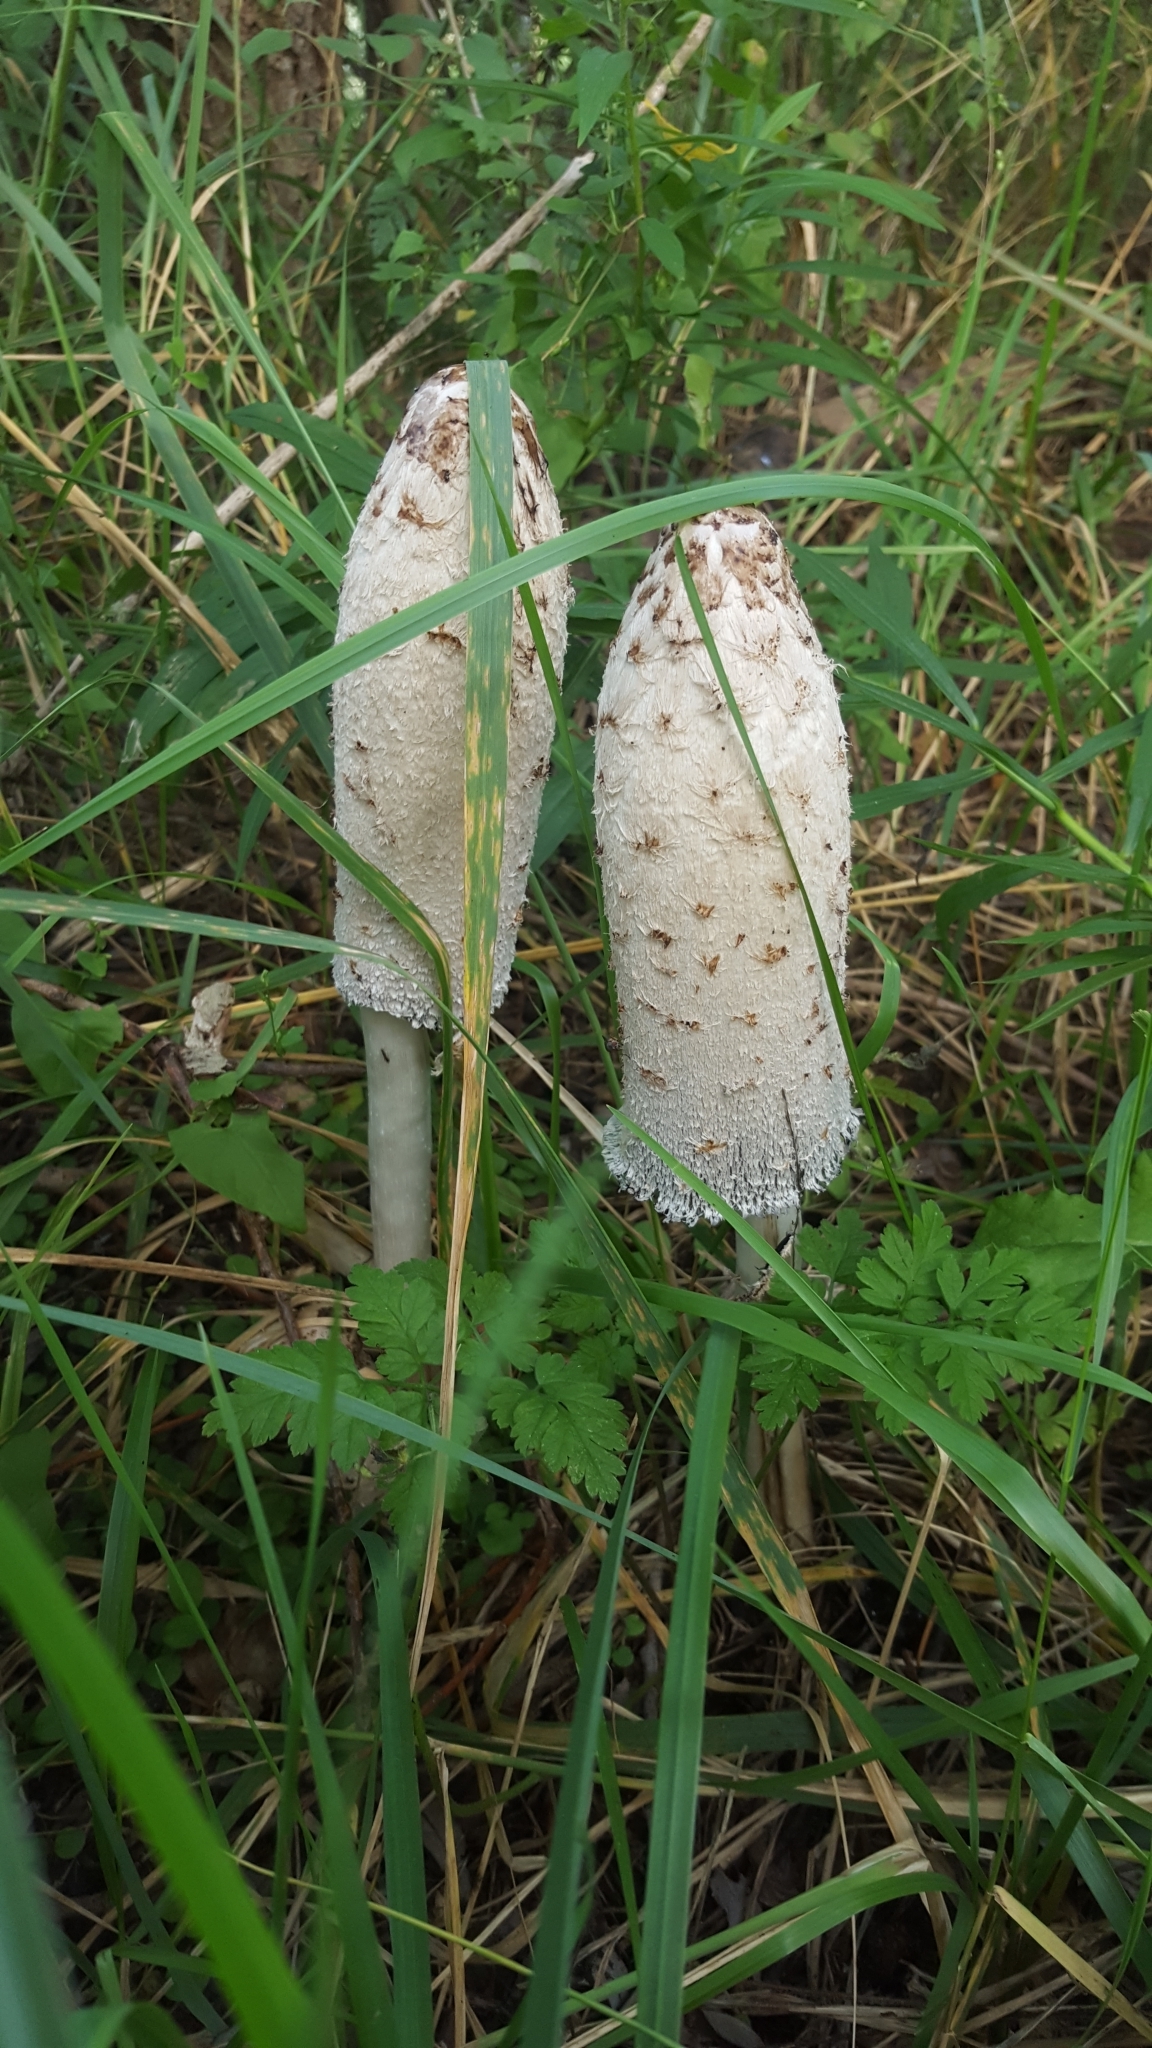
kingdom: Fungi
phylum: Basidiomycota
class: Agaricomycetes
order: Agaricales
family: Agaricaceae
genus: Coprinus
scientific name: Coprinus comatus
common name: Lawyer's wig
